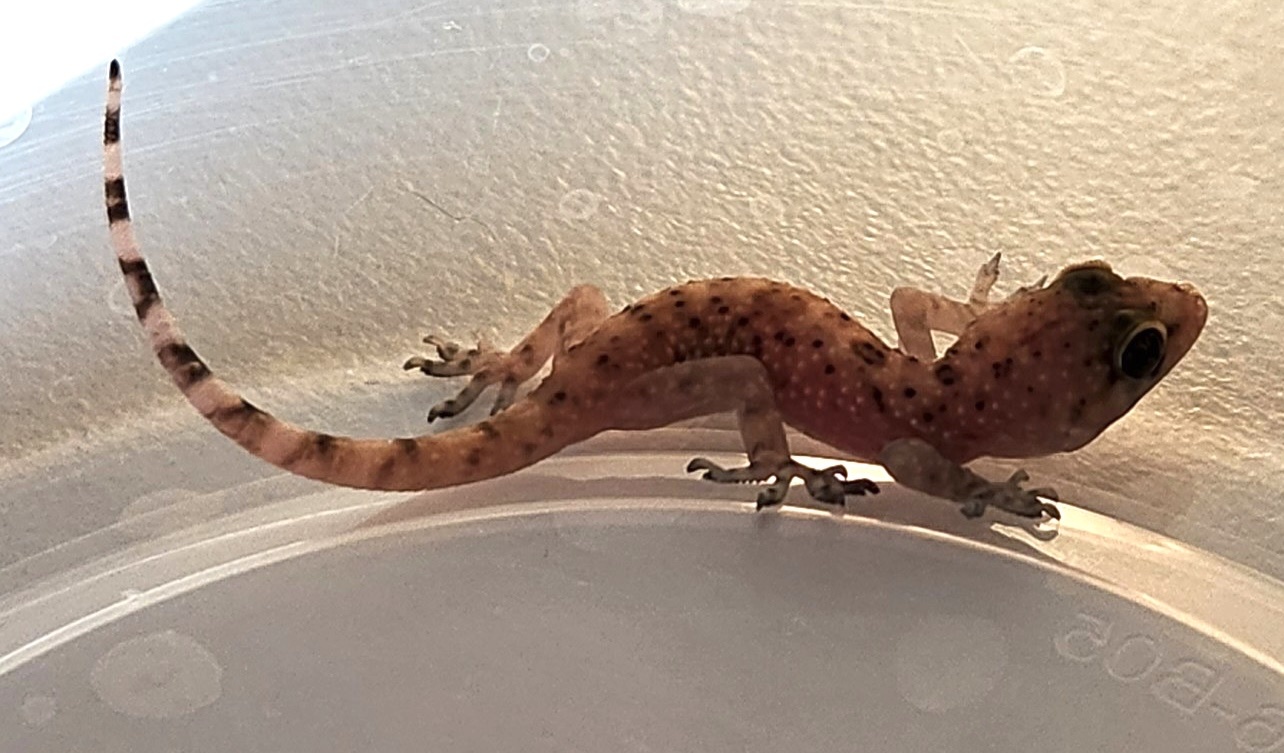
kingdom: Animalia
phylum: Chordata
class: Squamata
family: Gekkonidae
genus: Hemidactylus
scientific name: Hemidactylus turcicus
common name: Turkish gecko
